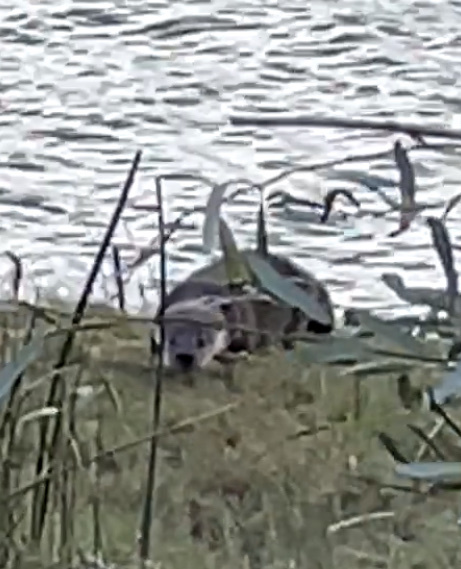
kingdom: Animalia
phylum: Chordata
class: Mammalia
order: Carnivora
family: Mustelidae
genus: Lontra
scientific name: Lontra canadensis
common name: North american river otter
